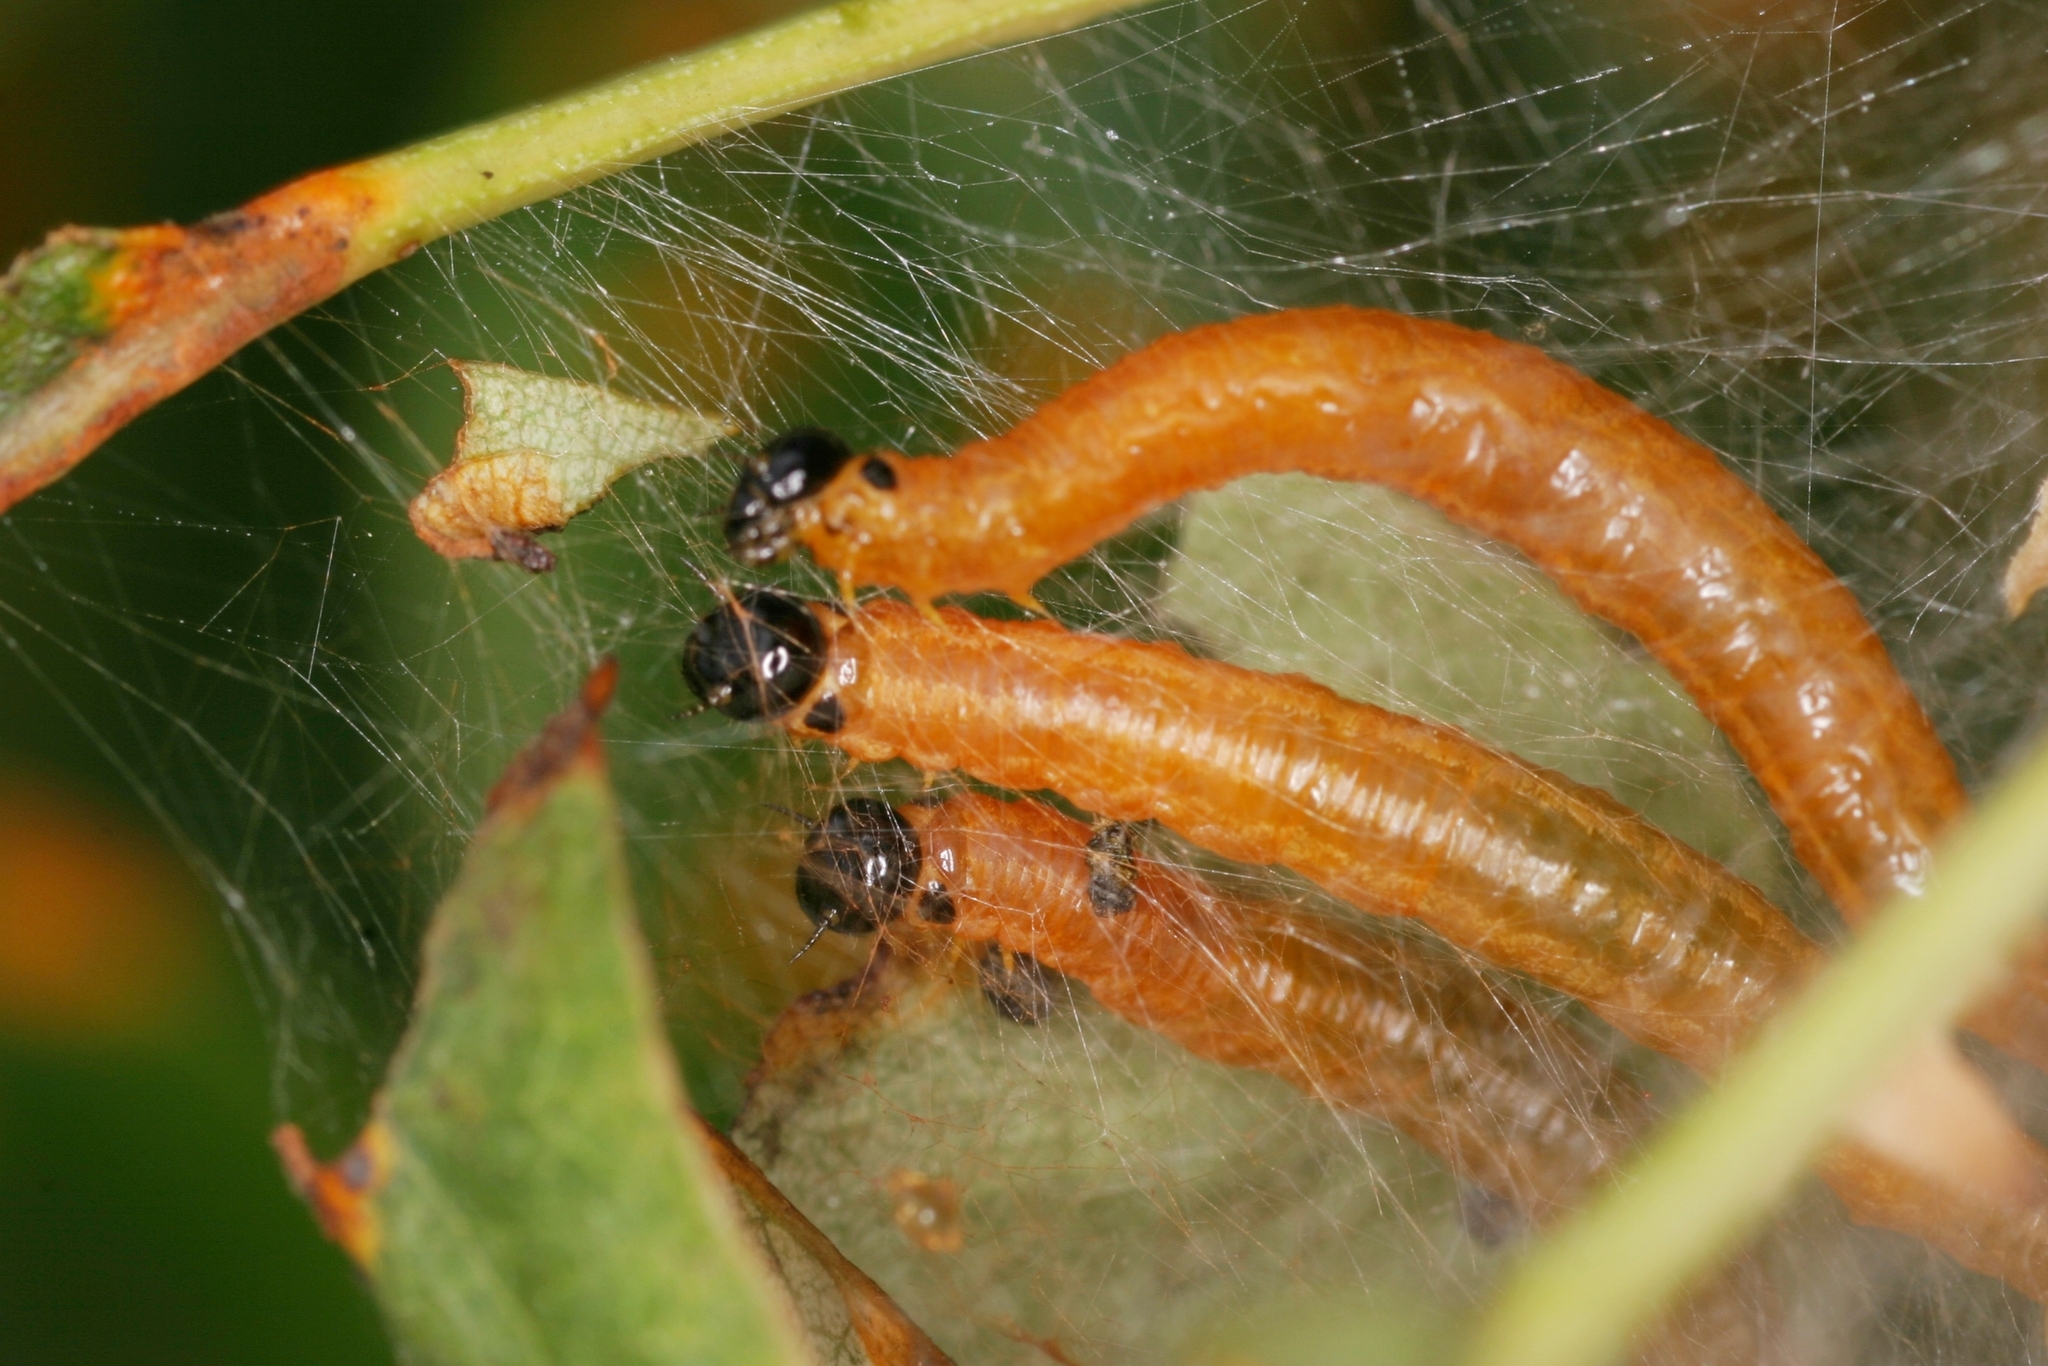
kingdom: Animalia
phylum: Arthropoda
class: Insecta
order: Hymenoptera
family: Pamphiliidae
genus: Neurotoma
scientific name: Neurotoma saltuum
